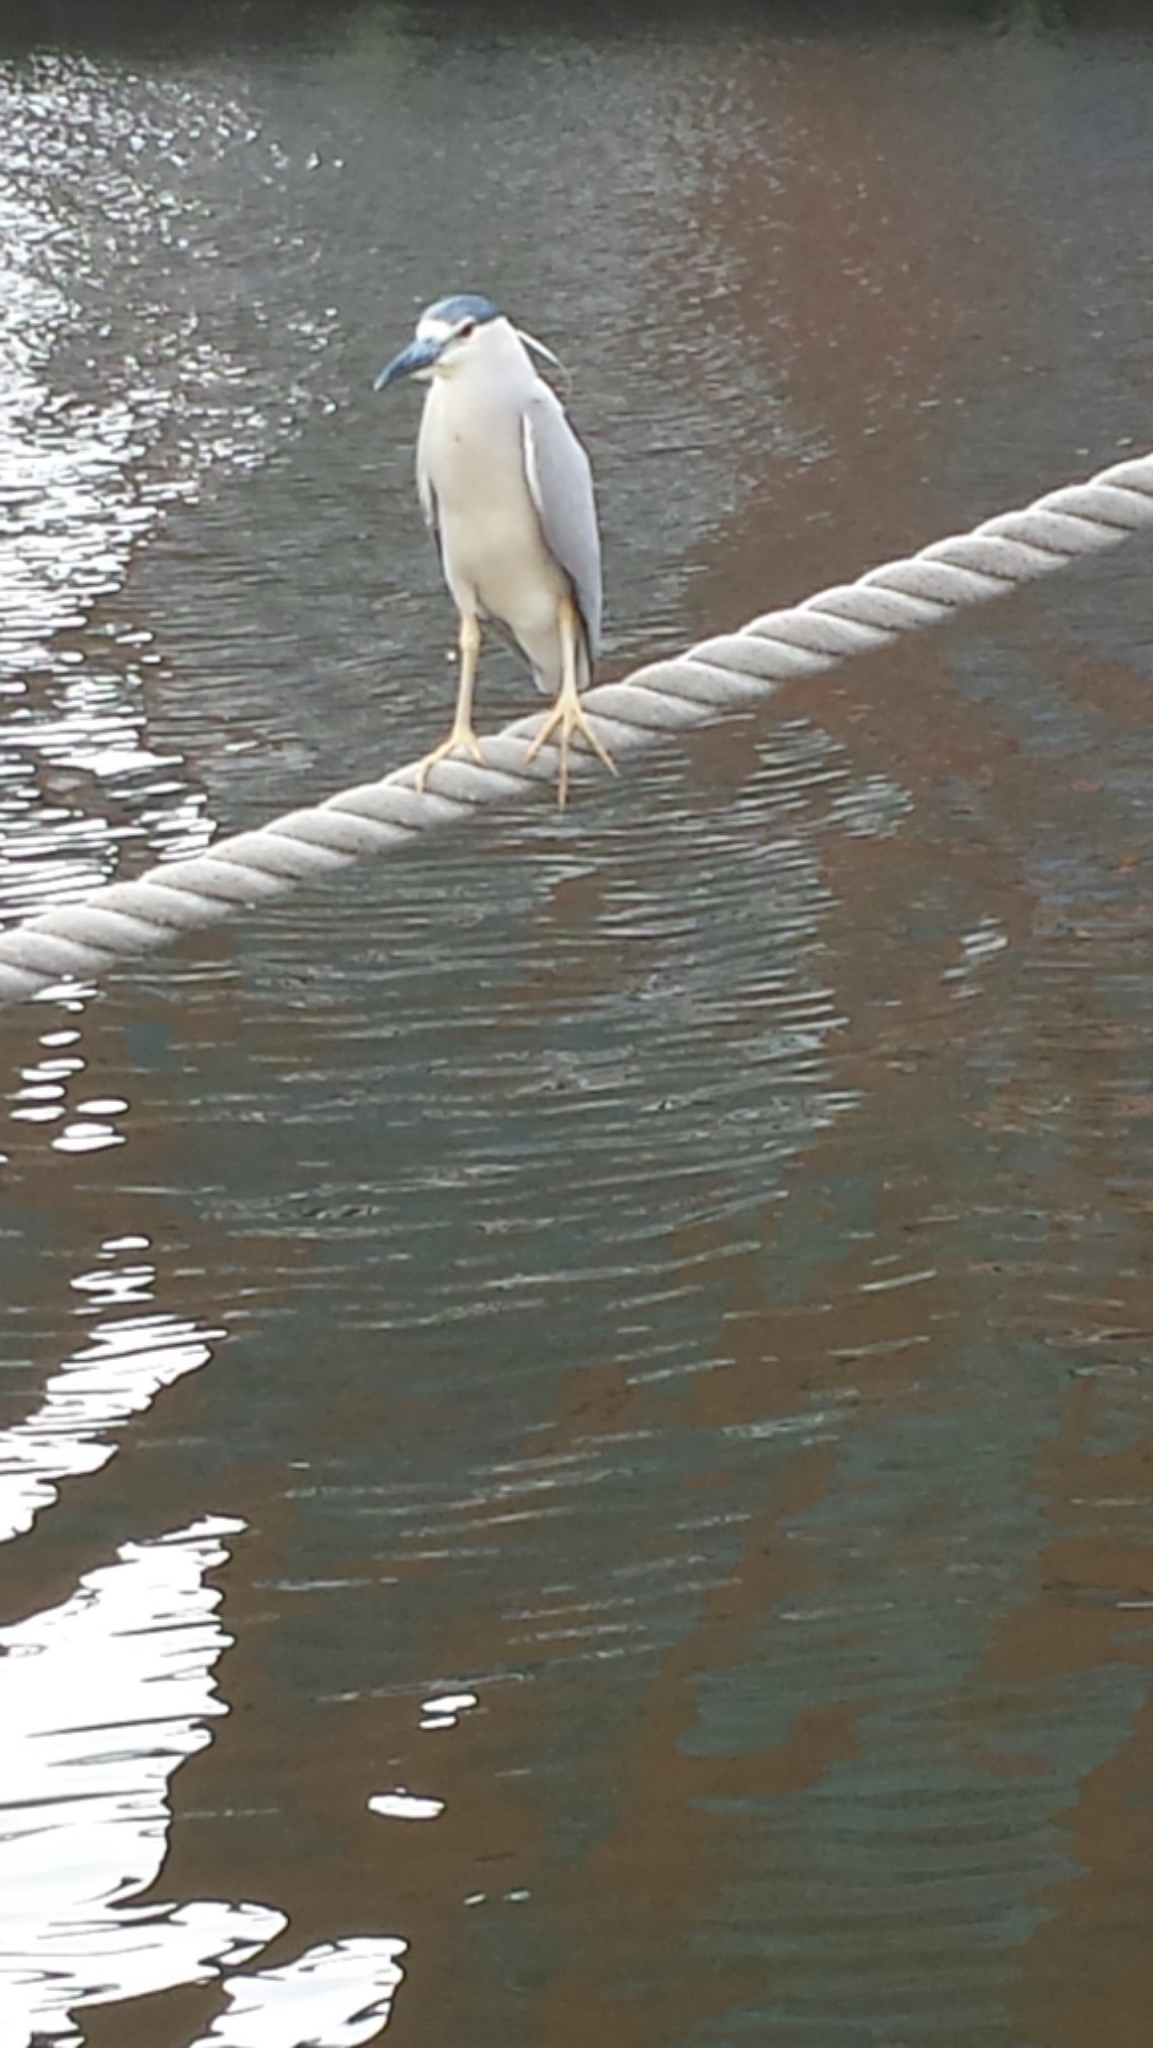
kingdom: Animalia
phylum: Chordata
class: Aves
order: Pelecaniformes
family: Ardeidae
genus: Nycticorax
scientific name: Nycticorax nycticorax
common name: Black-crowned night heron
